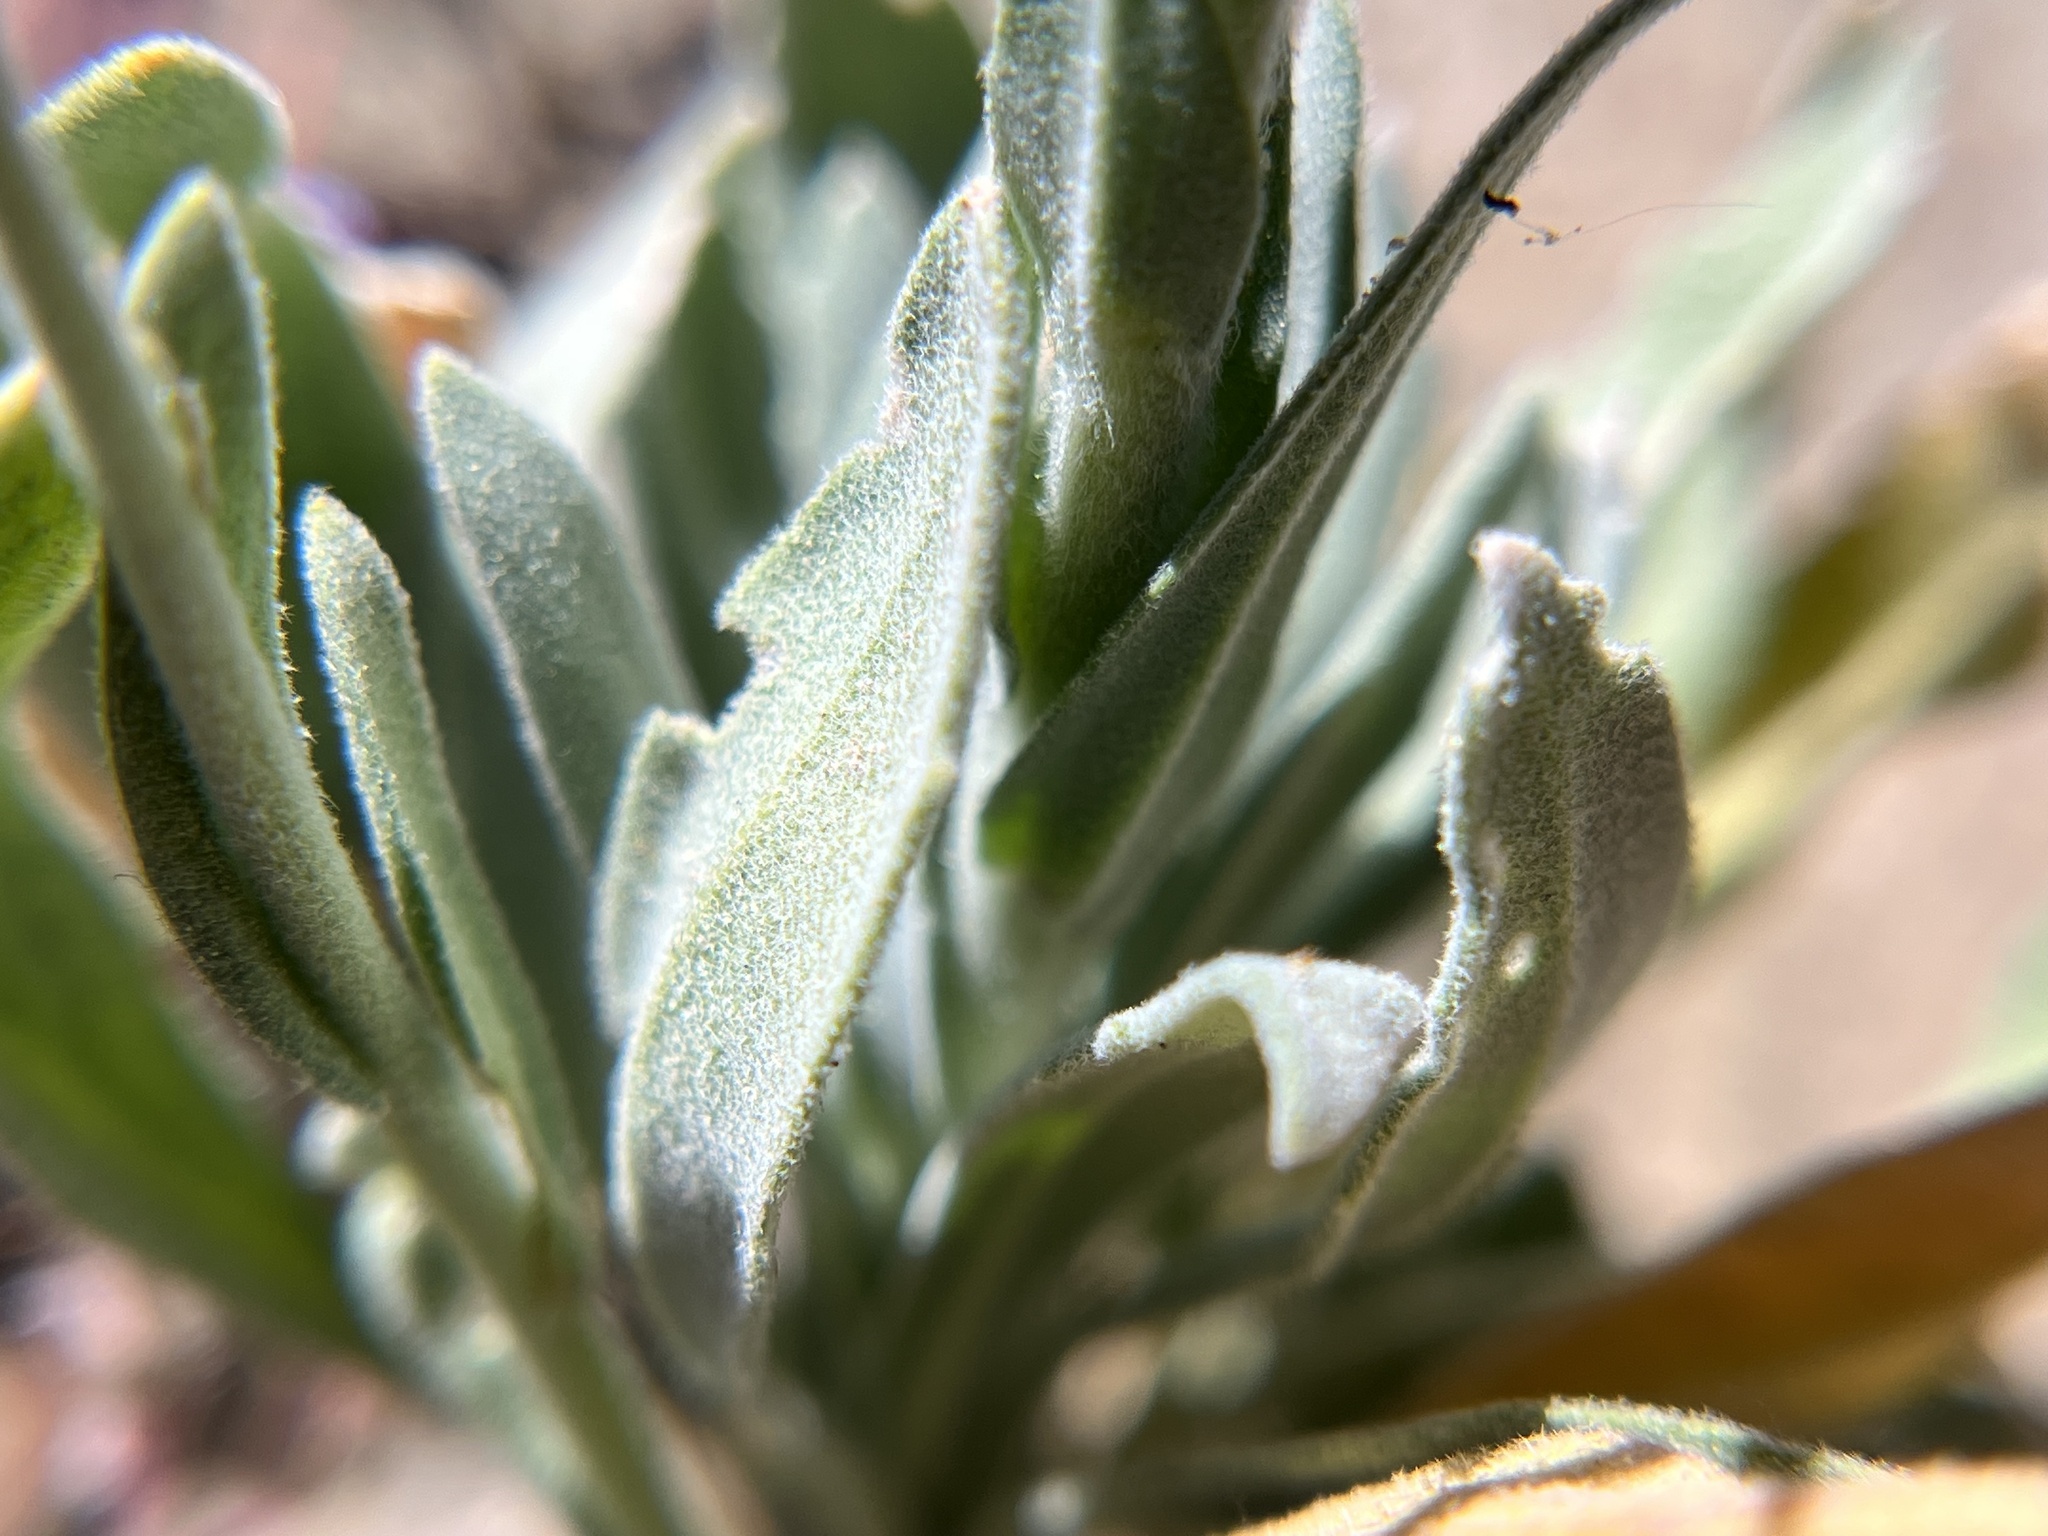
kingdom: Plantae
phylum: Tracheophyta
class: Magnoliopsida
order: Brassicales
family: Brassicaceae
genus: Boechera
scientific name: Boechera shockleyi
